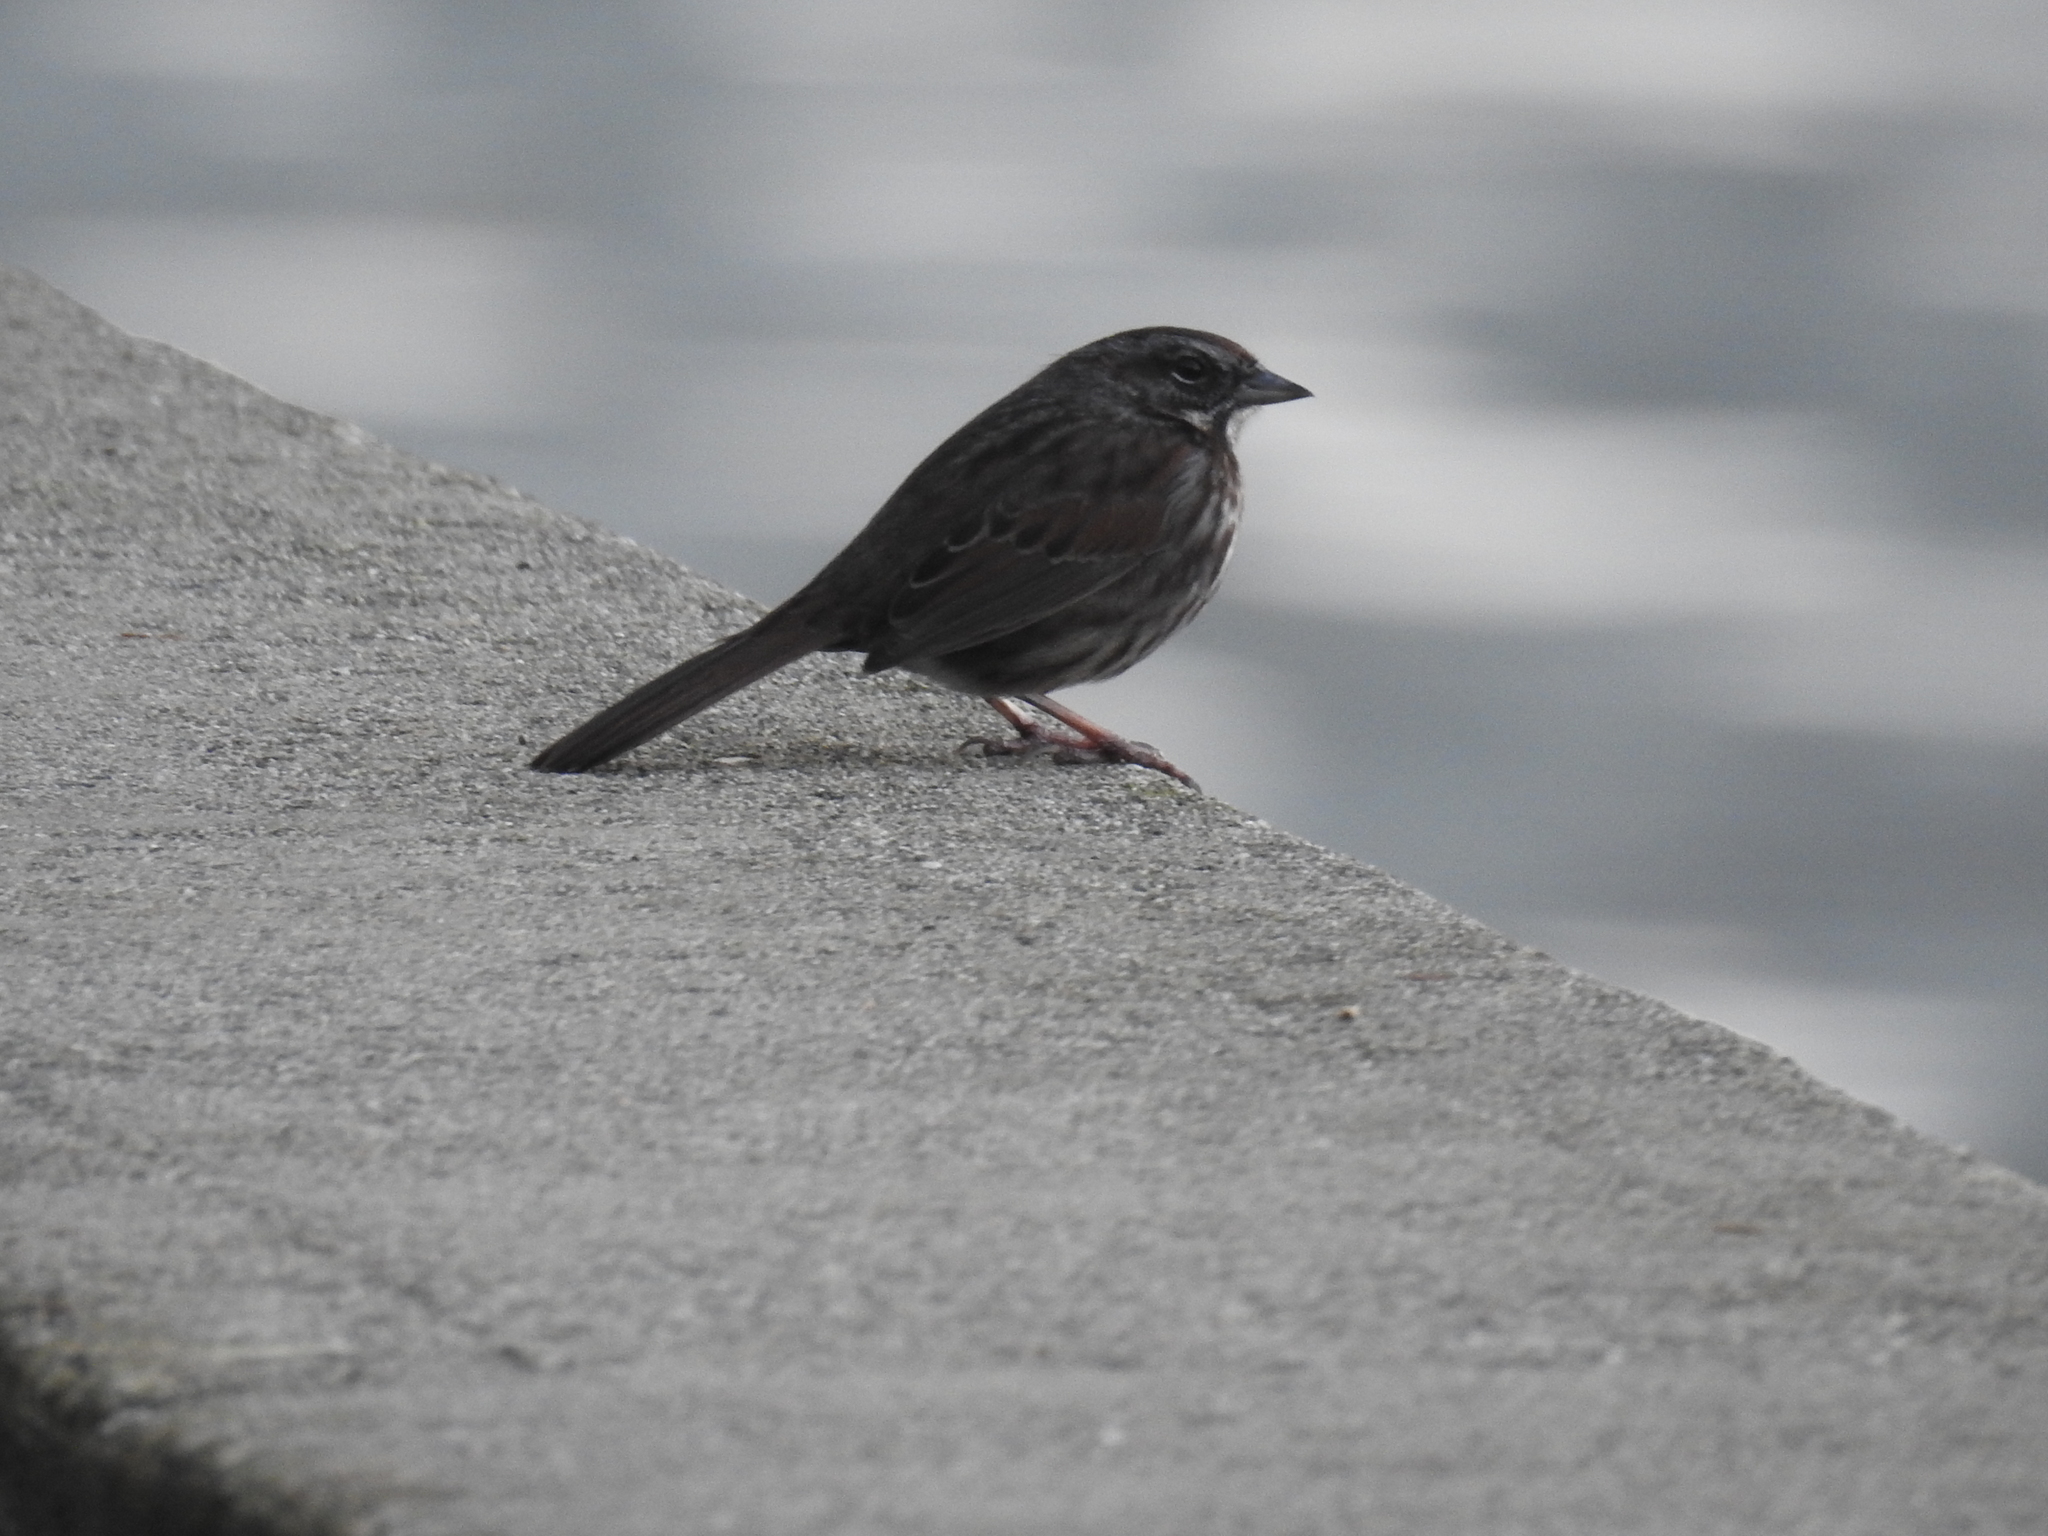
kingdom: Animalia
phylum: Chordata
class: Aves
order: Passeriformes
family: Passerellidae
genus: Melospiza
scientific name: Melospiza melodia
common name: Song sparrow
